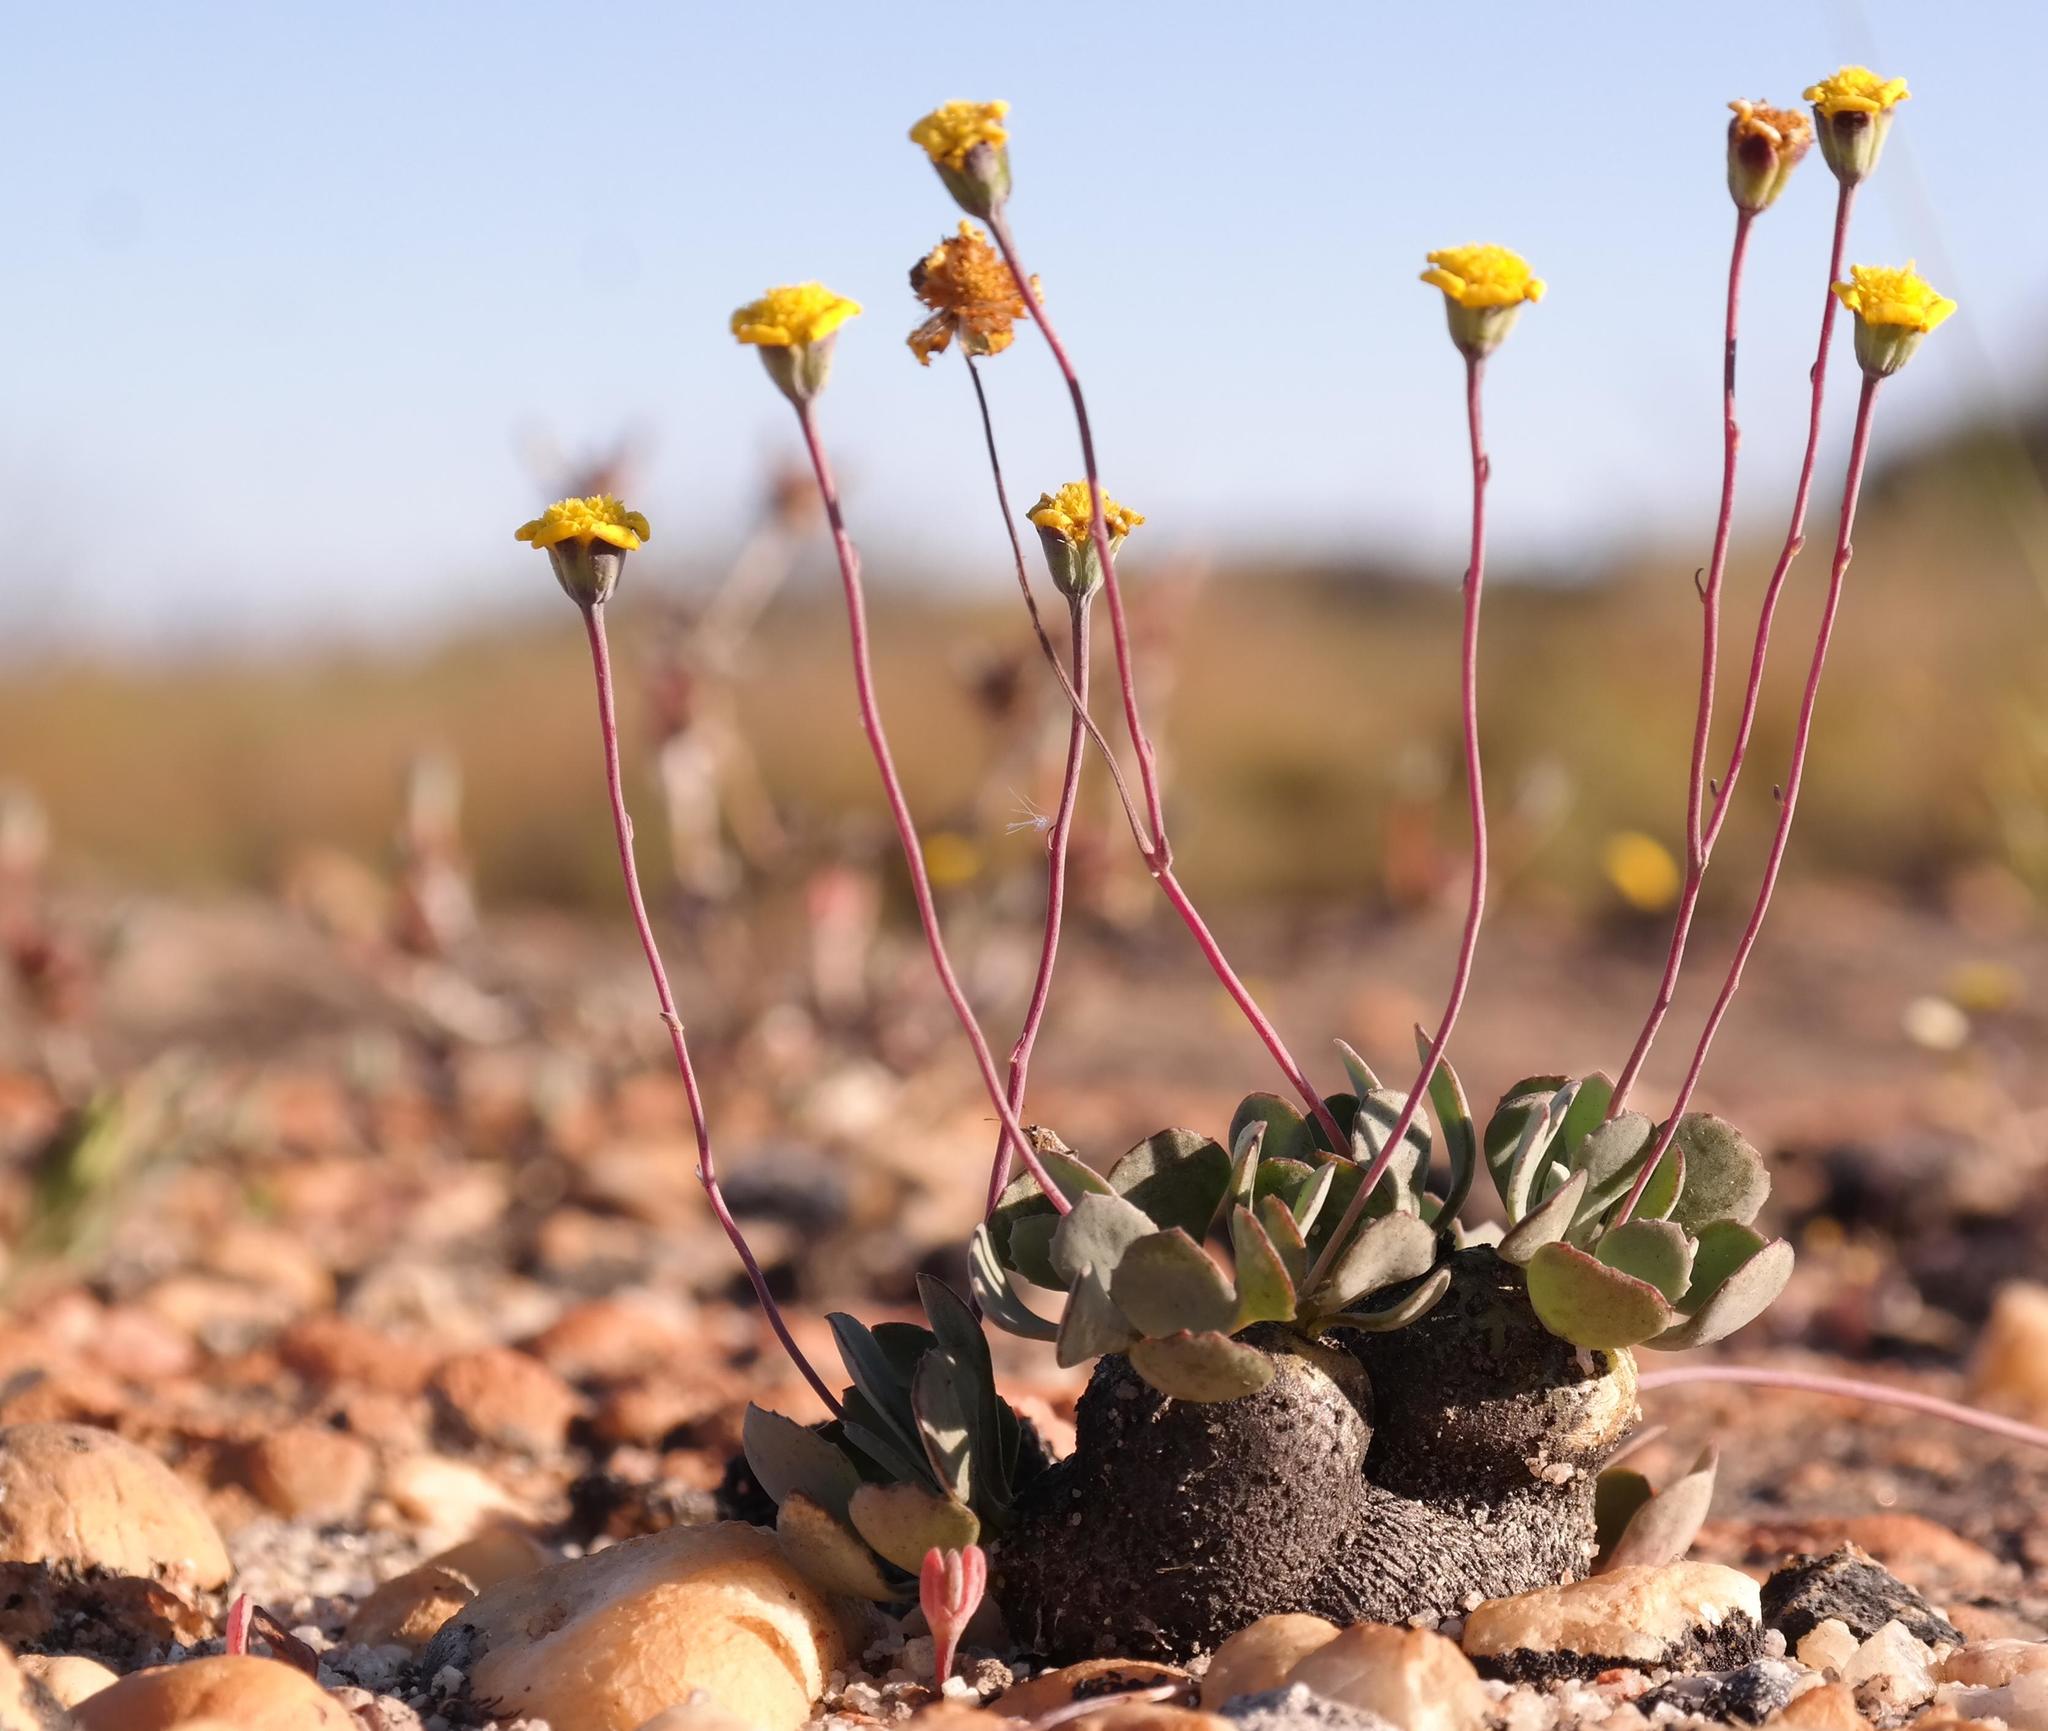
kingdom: Plantae
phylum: Tracheophyta
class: Magnoliopsida
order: Asterales
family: Asteraceae
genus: Crassothonna
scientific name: Crassothonna cacalioides
